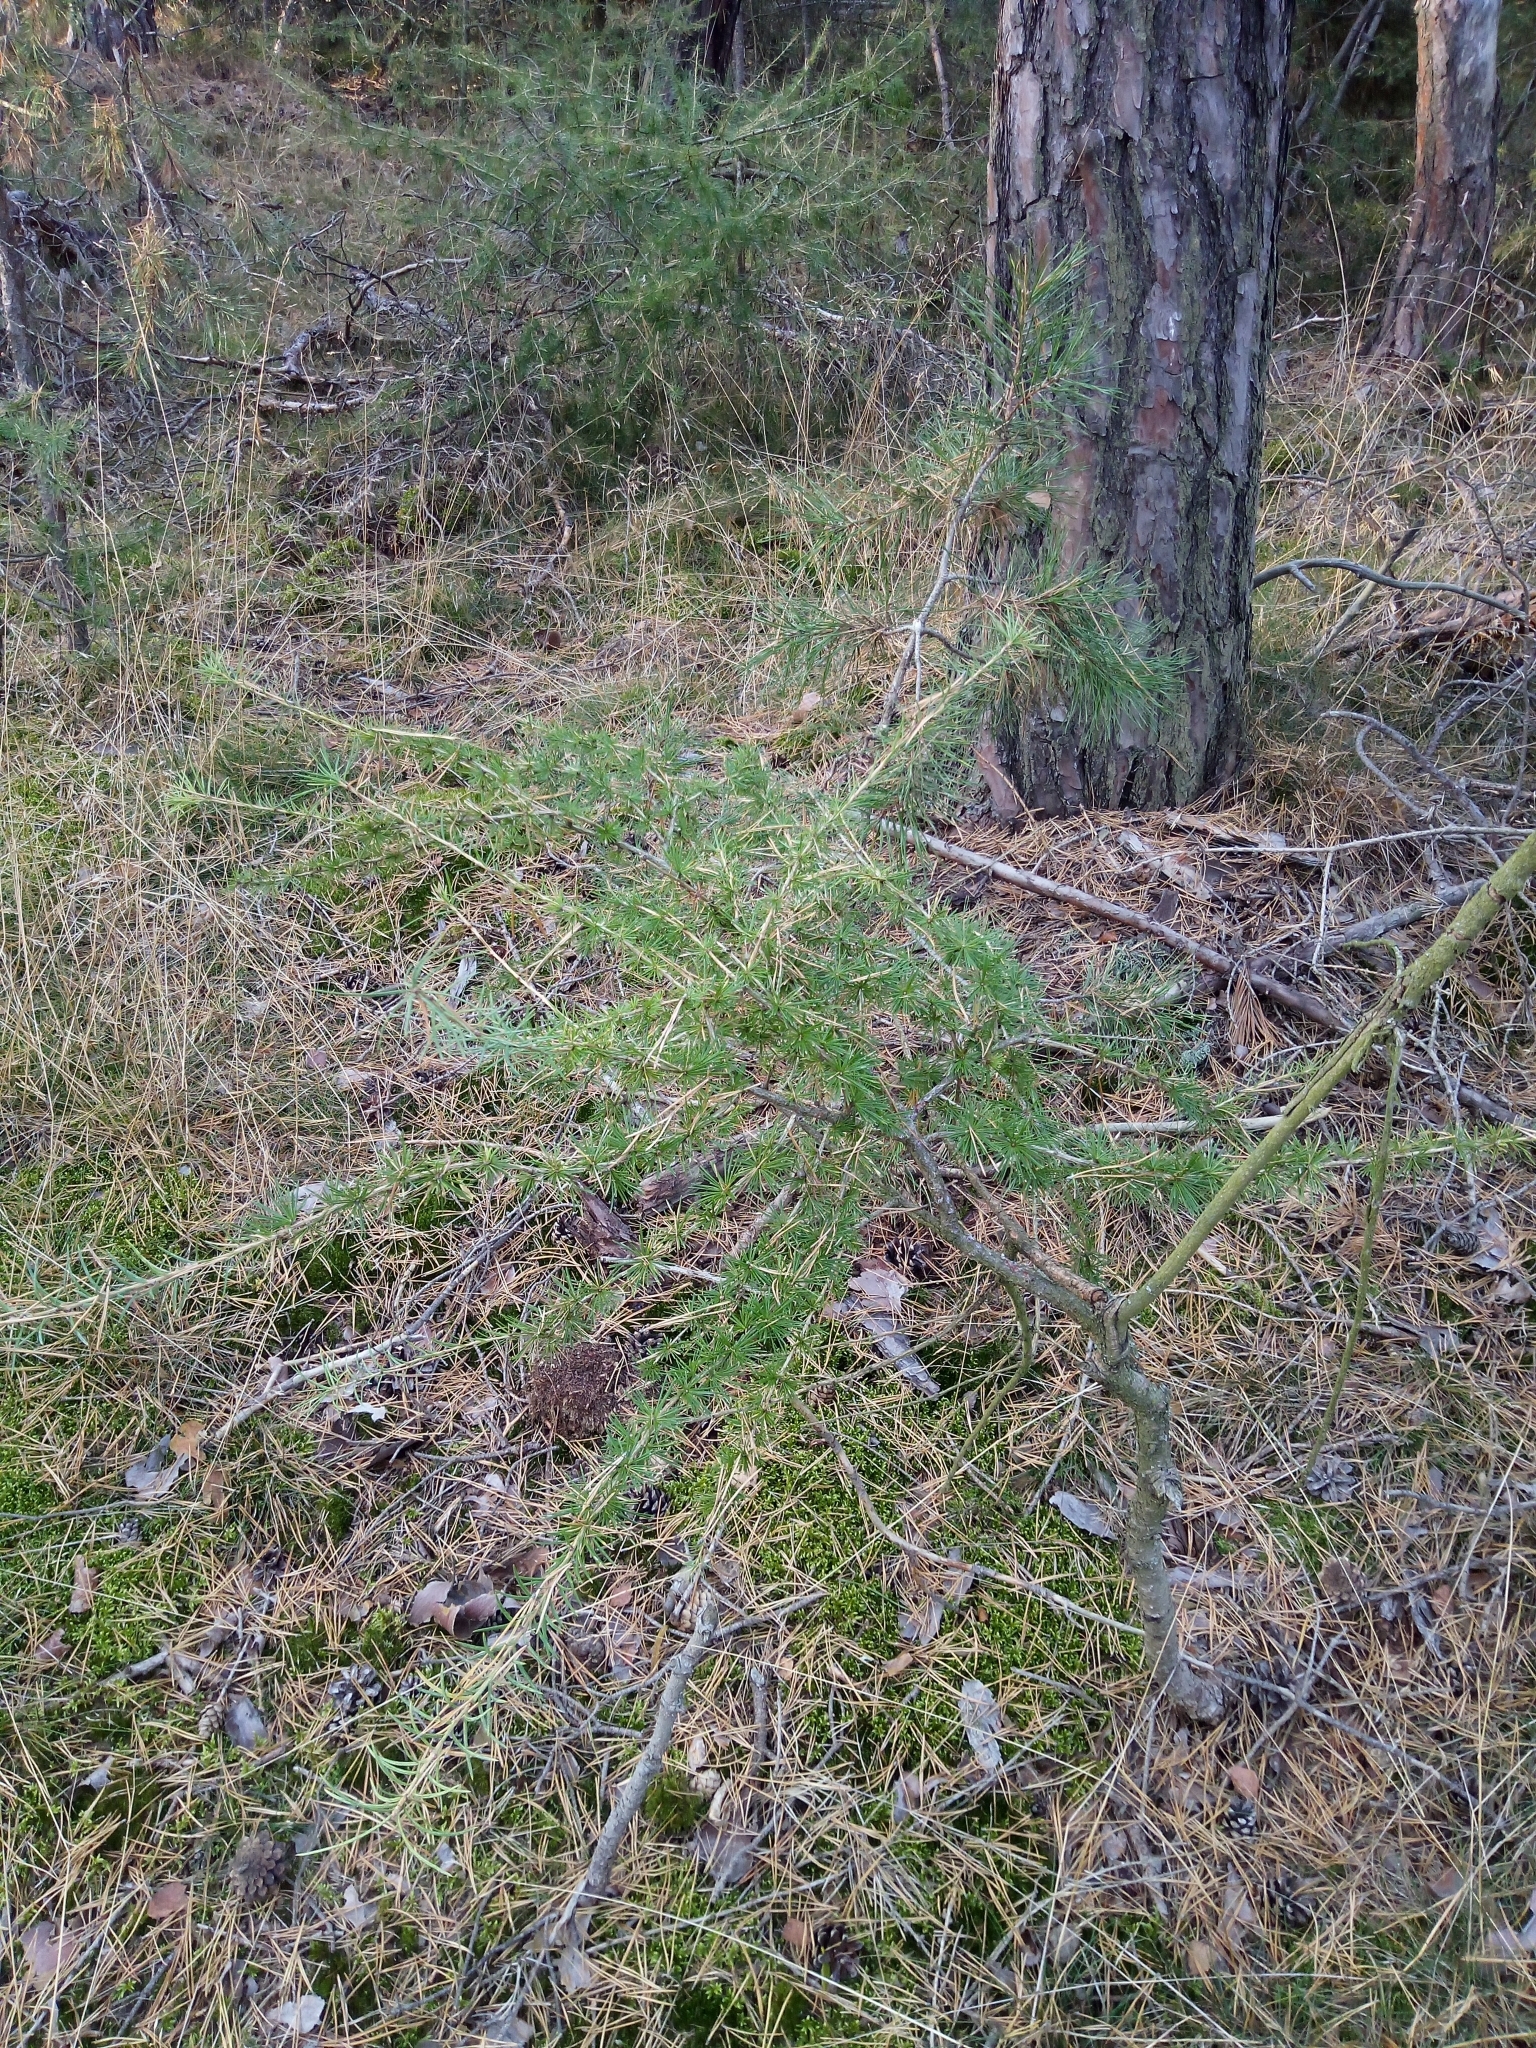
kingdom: Plantae
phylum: Tracheophyta
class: Pinopsida
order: Pinales
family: Pinaceae
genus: Larix
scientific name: Larix decidua
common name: European larch
